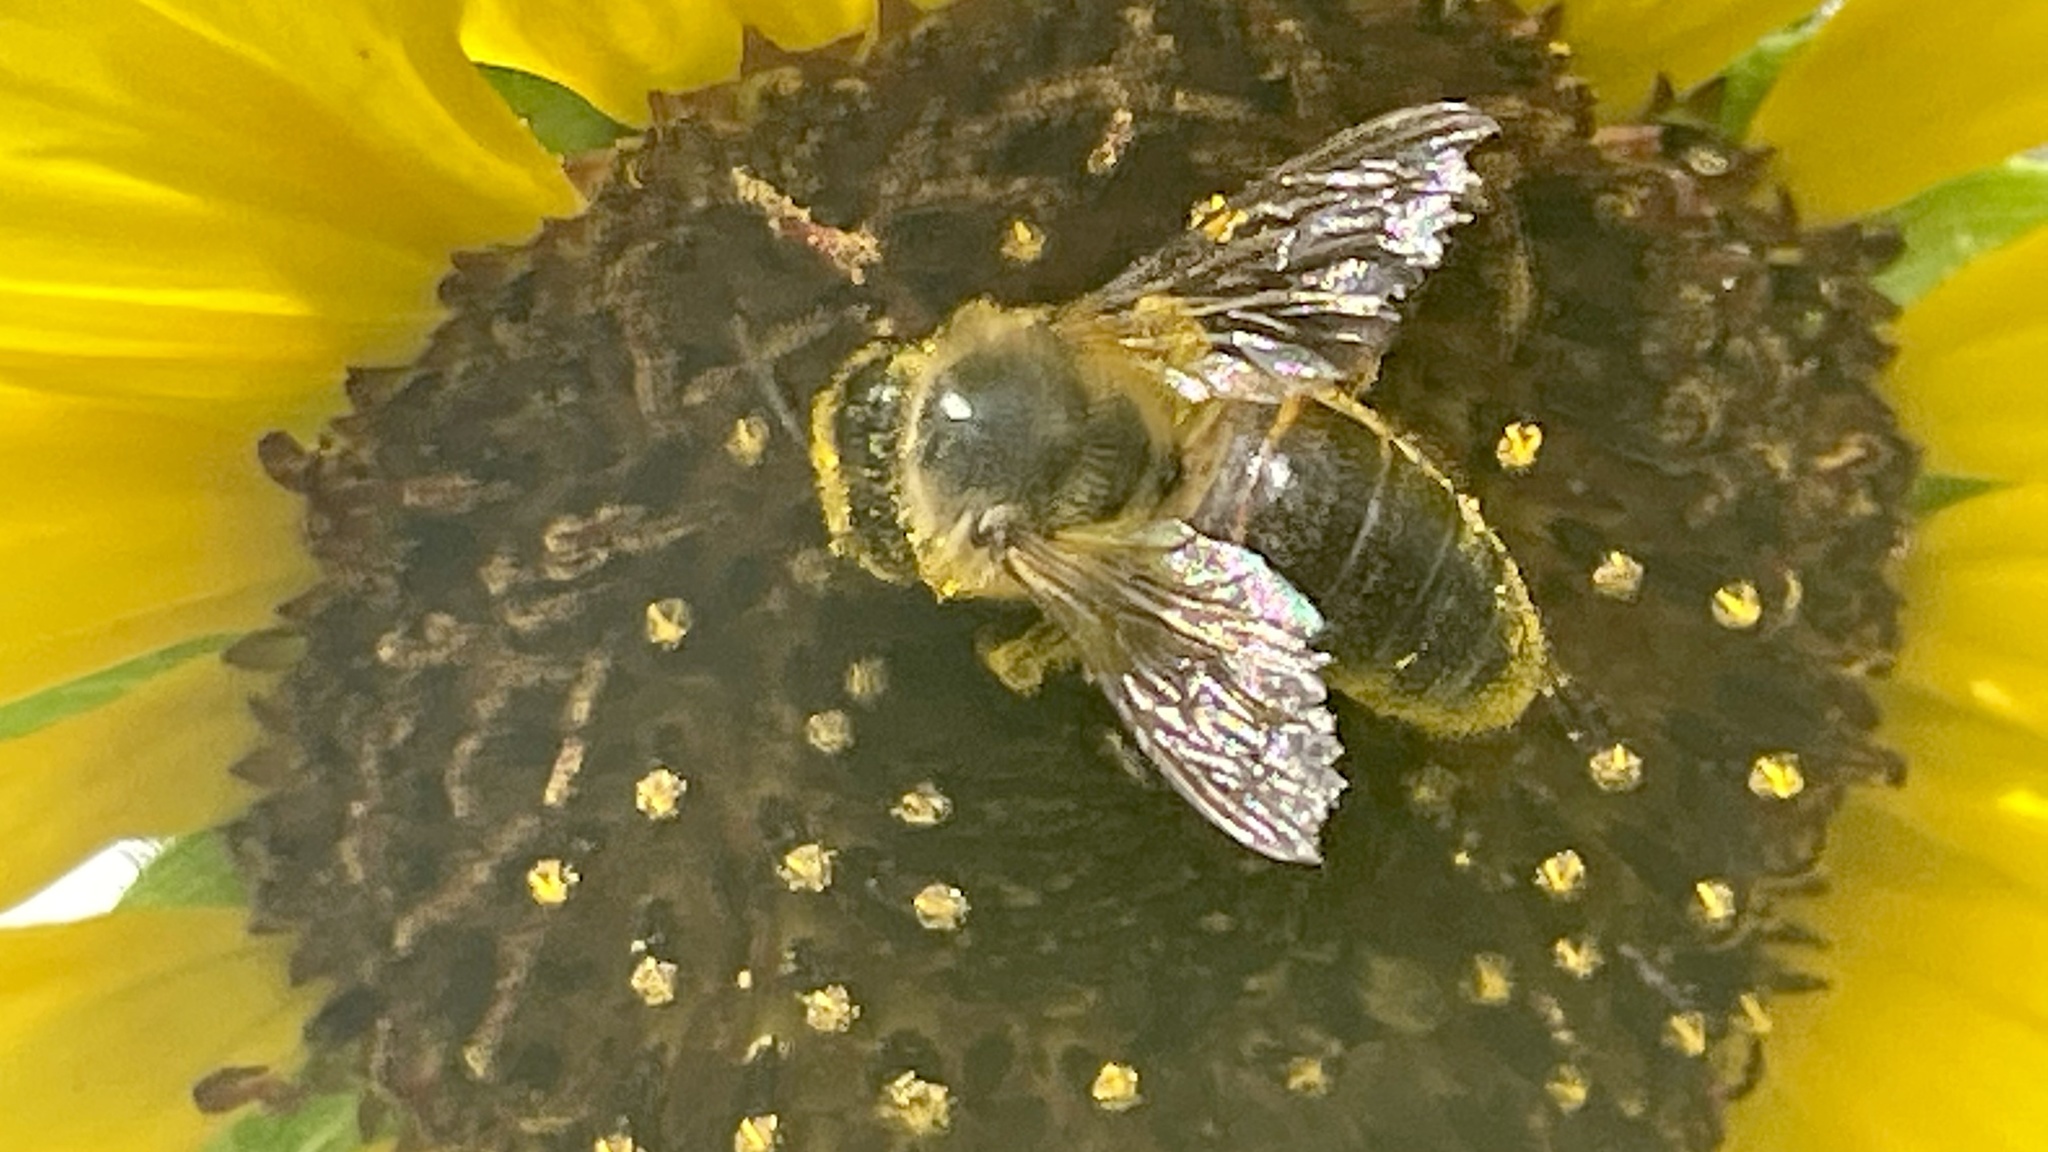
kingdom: Animalia
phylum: Arthropoda
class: Insecta
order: Hymenoptera
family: Apidae
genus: Apis
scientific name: Apis mellifera
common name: Honey bee
